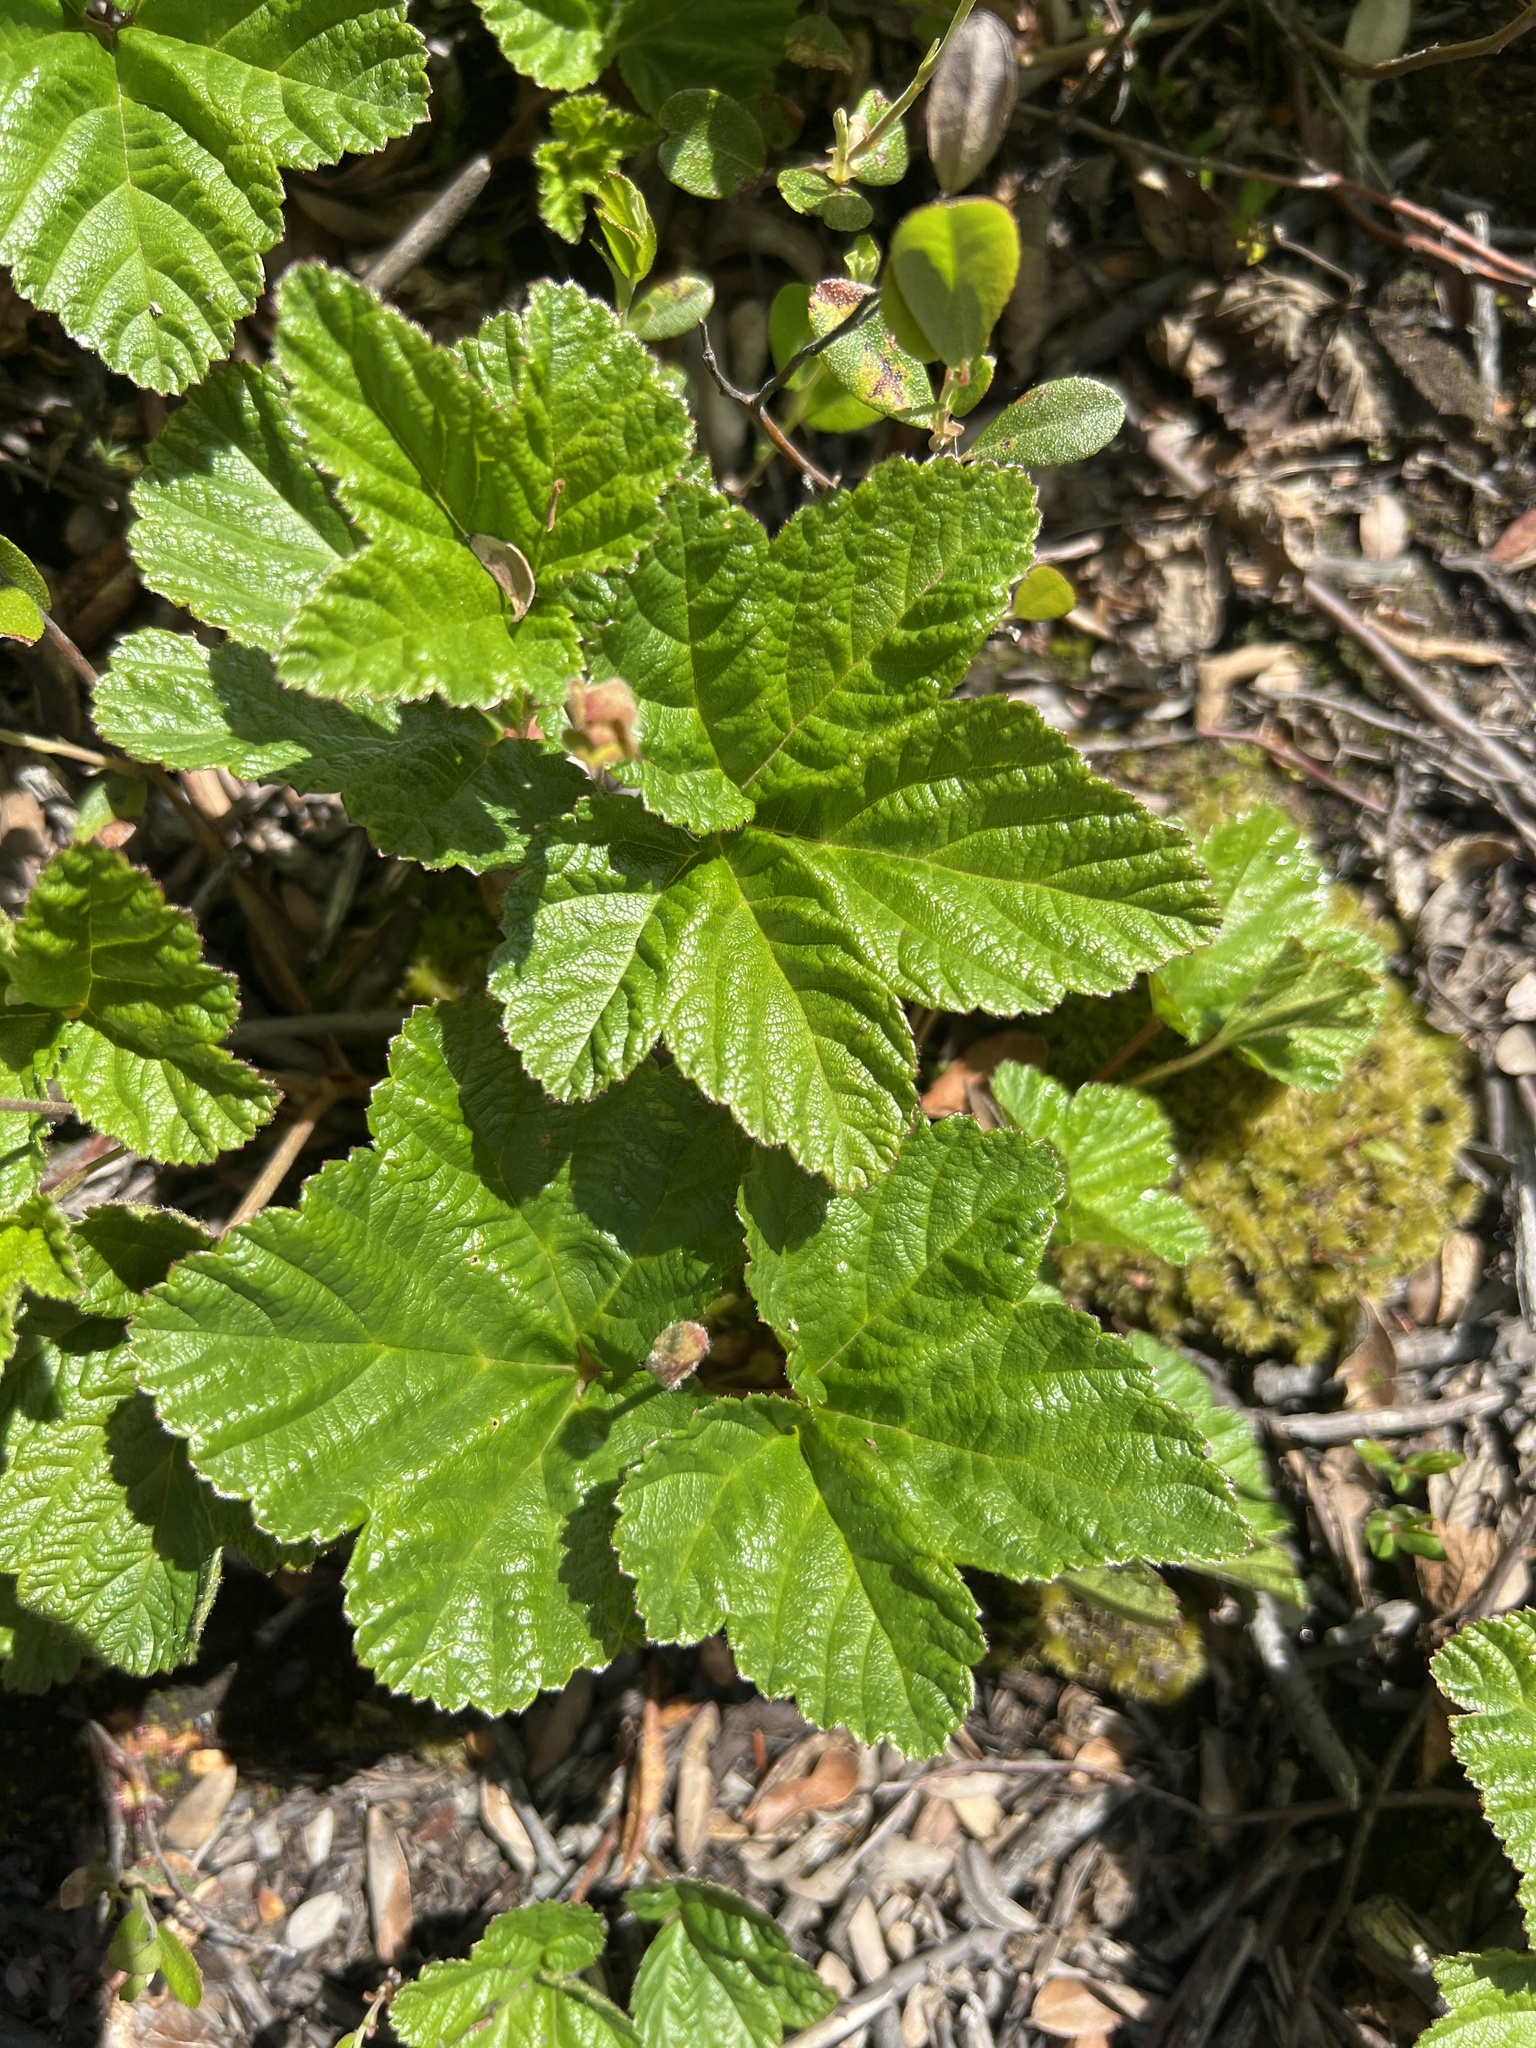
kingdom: Plantae
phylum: Tracheophyta
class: Magnoliopsida
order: Rosales
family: Rosaceae
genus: Rubus
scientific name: Rubus chamaemorus
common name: Cloudberry
